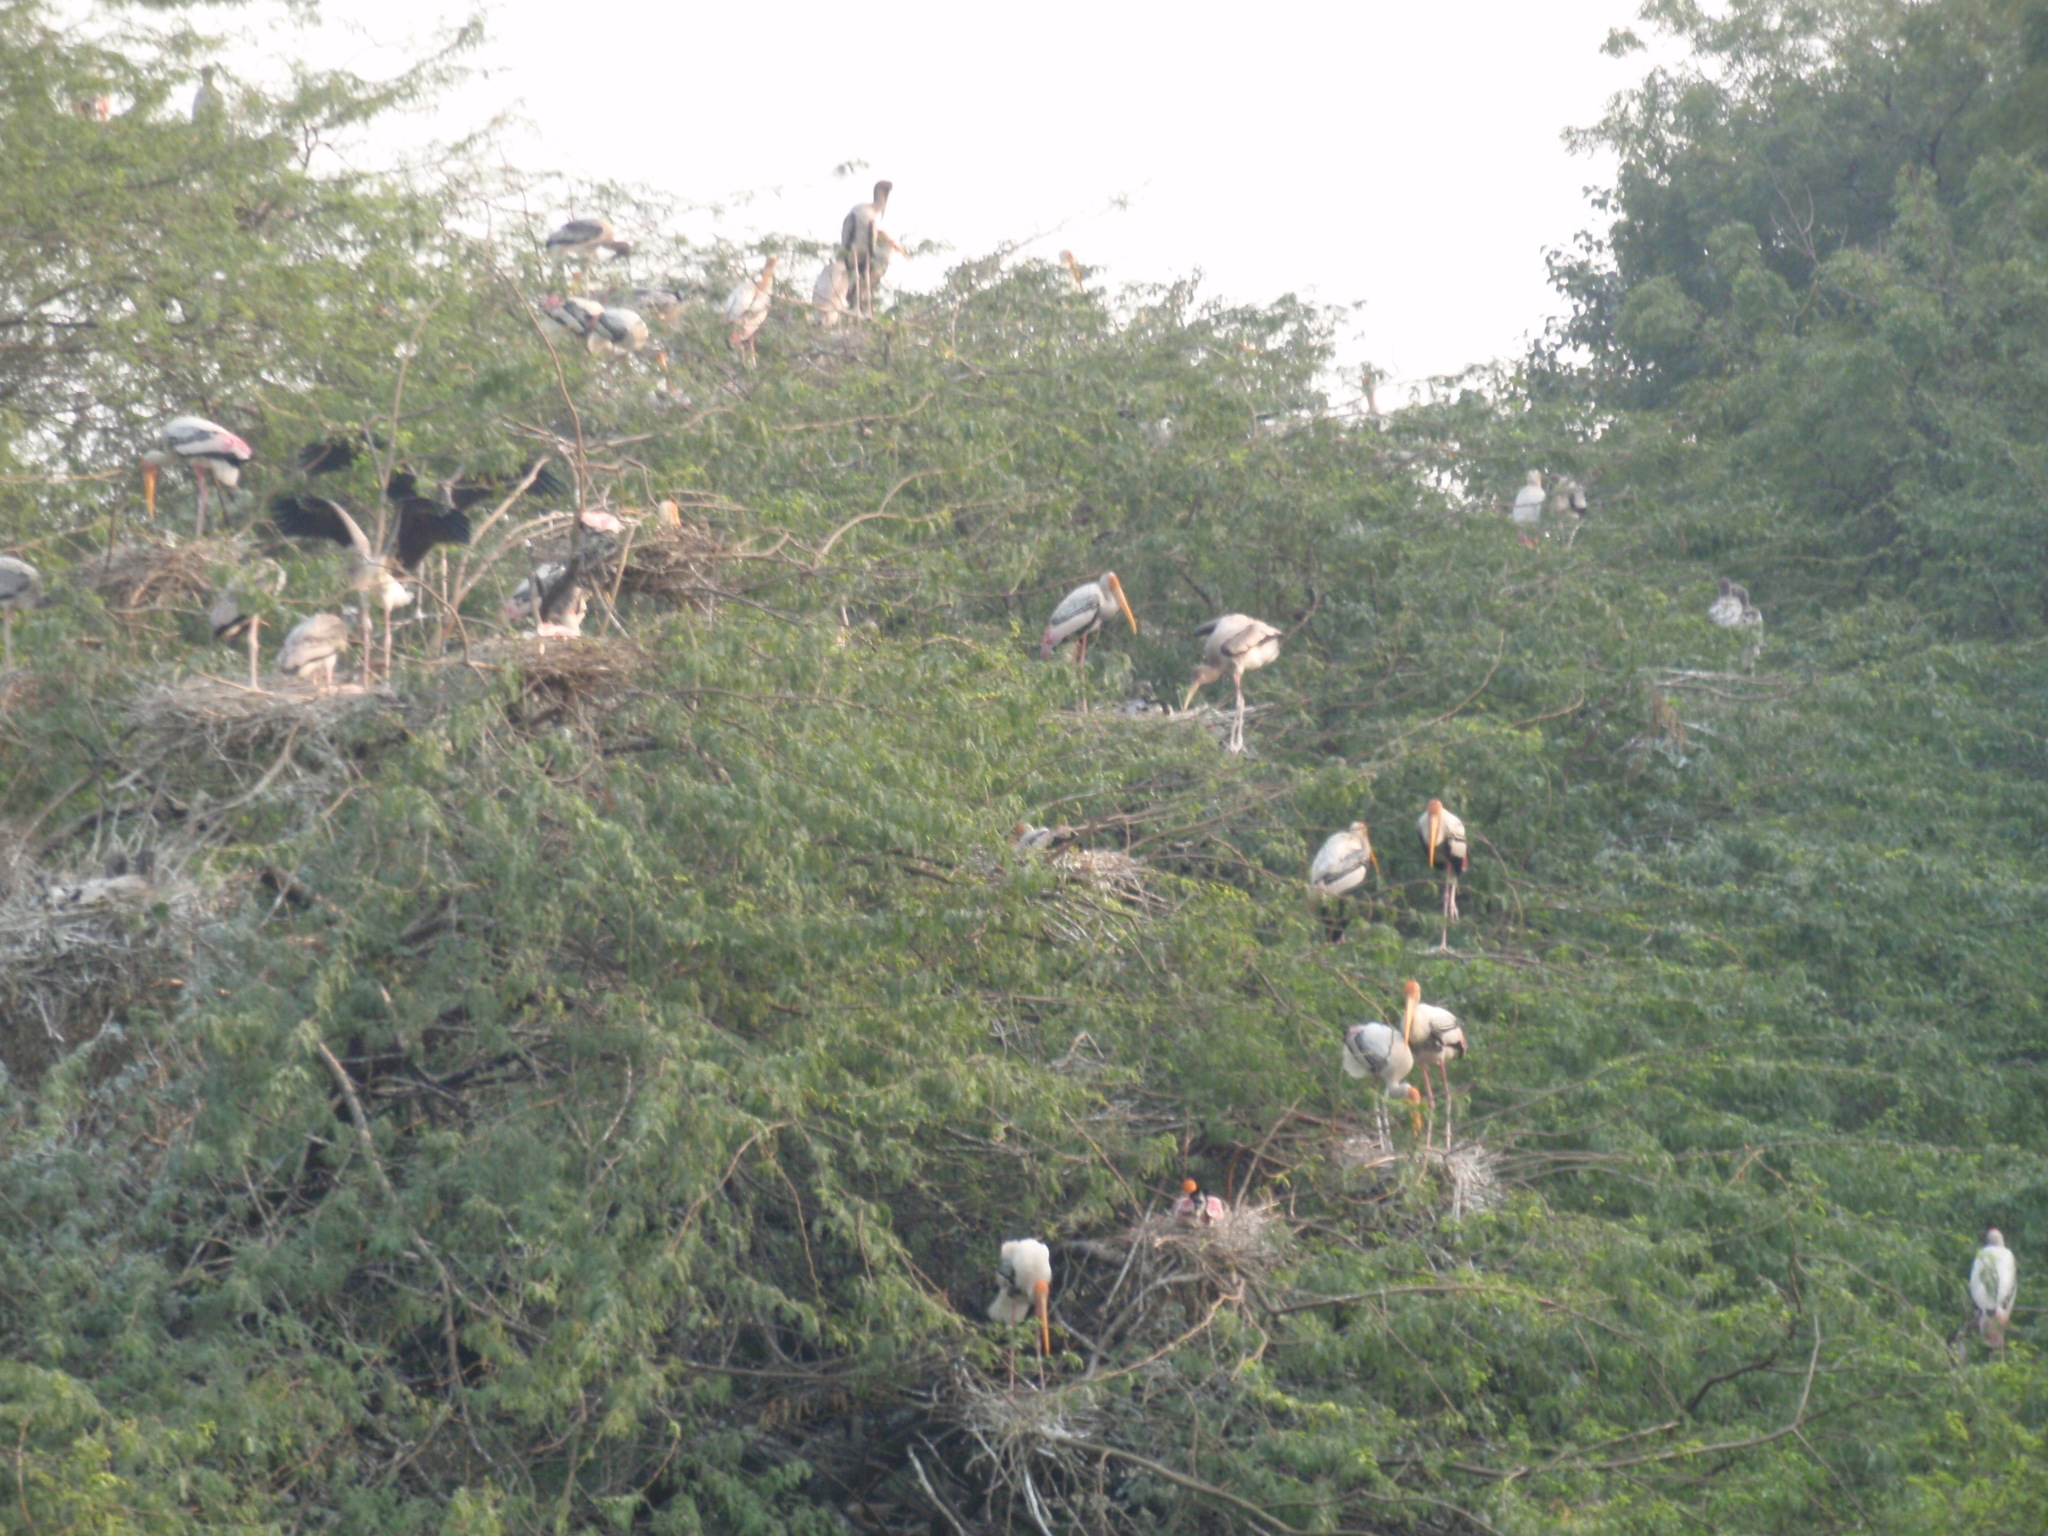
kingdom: Animalia
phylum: Chordata
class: Aves
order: Ciconiiformes
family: Ciconiidae
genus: Mycteria
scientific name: Mycteria leucocephala
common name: Painted stork
